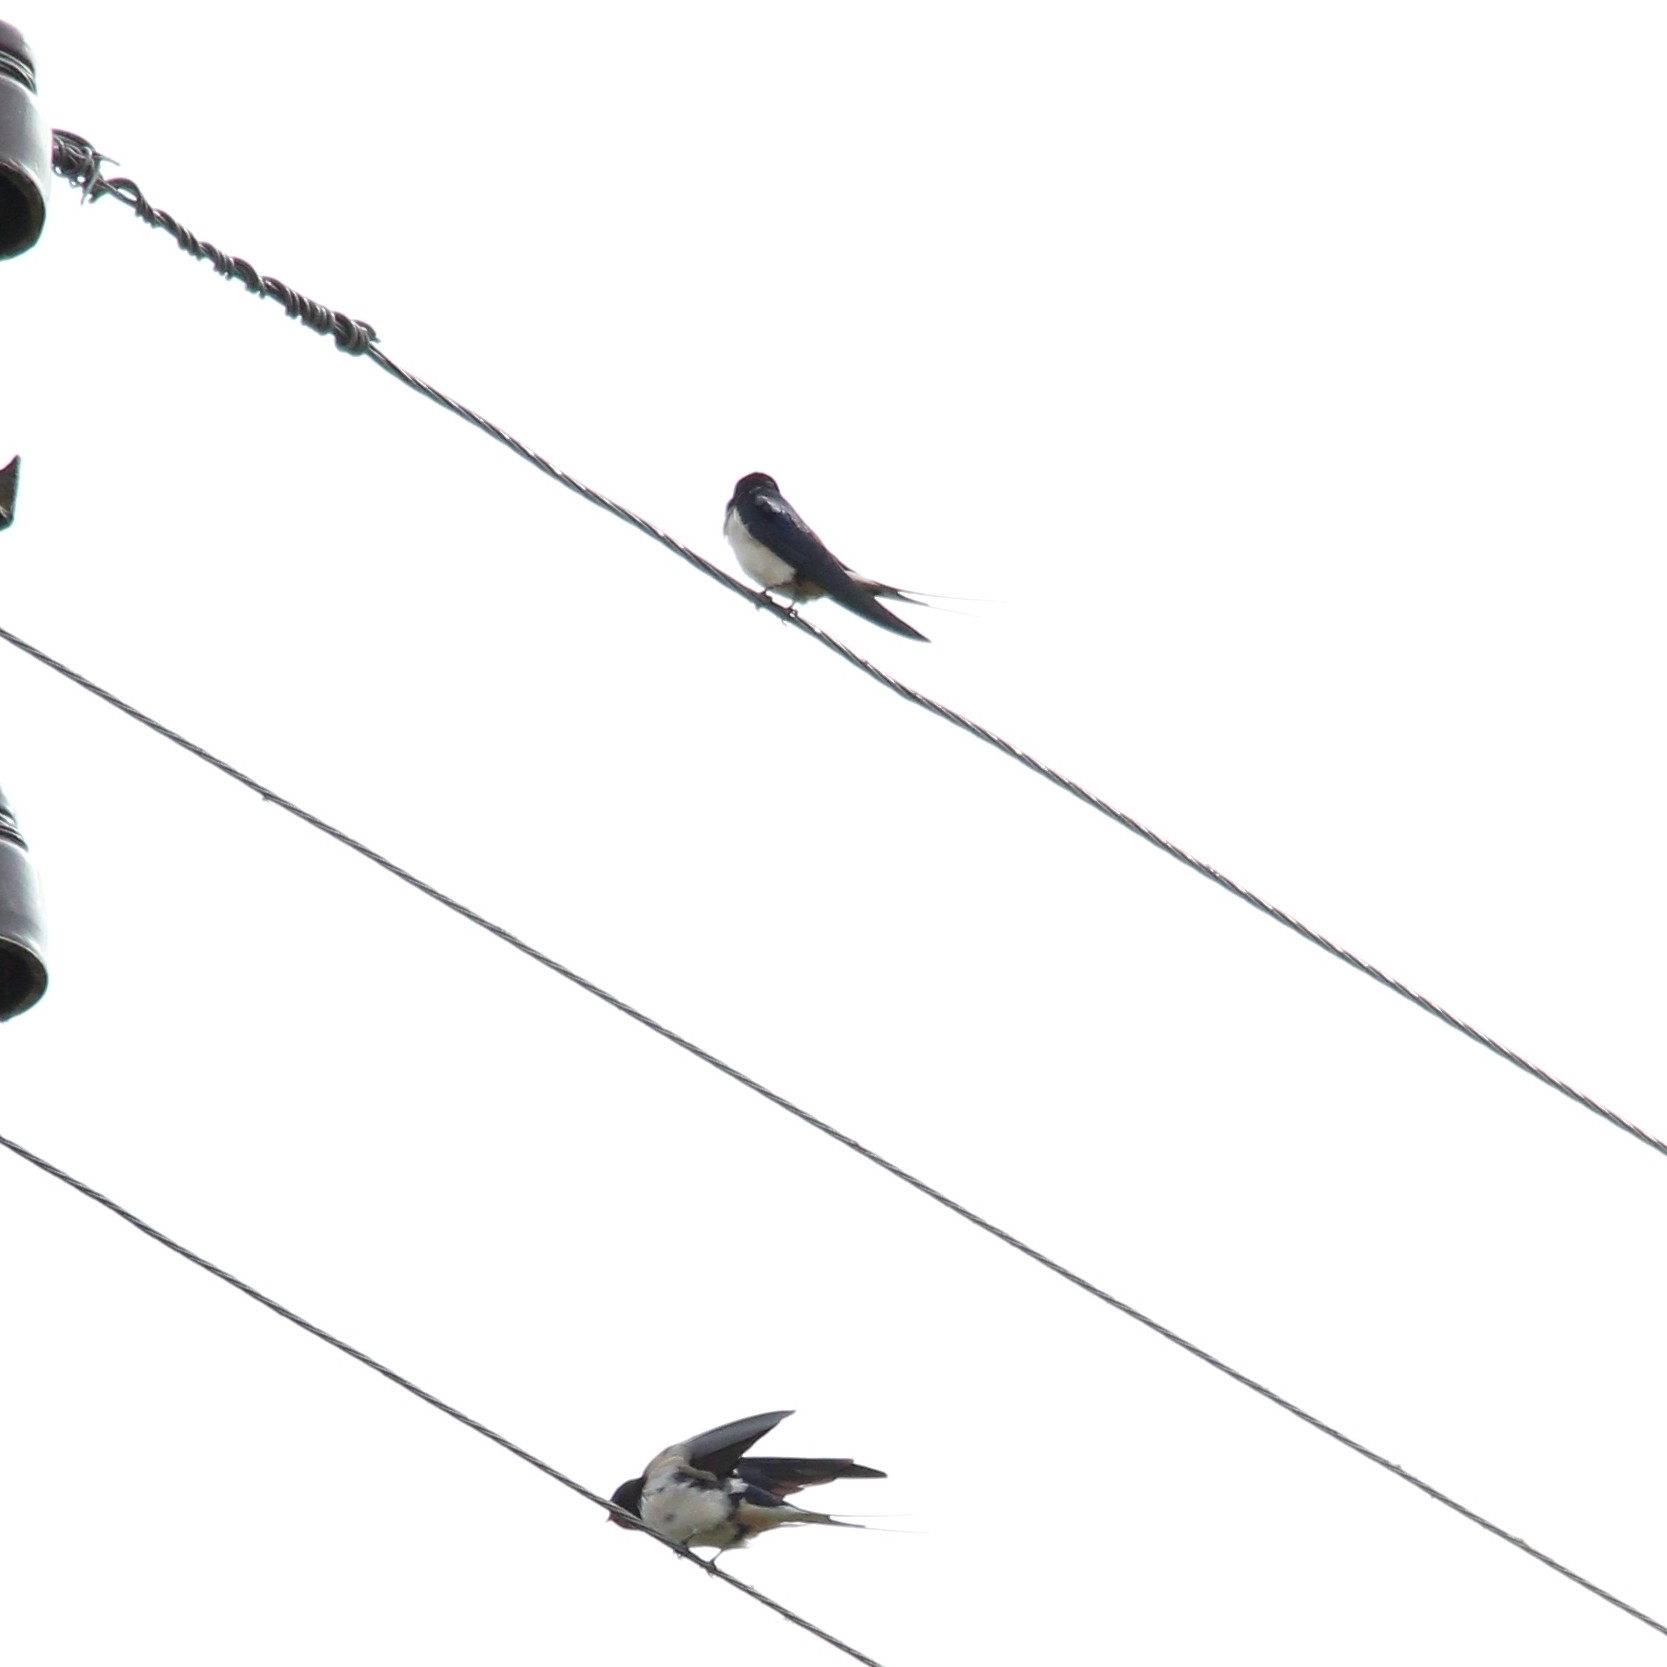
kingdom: Animalia
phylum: Chordata
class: Aves
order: Passeriformes
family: Hirundinidae
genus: Hirundo
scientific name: Hirundo rustica
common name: Barn swallow
